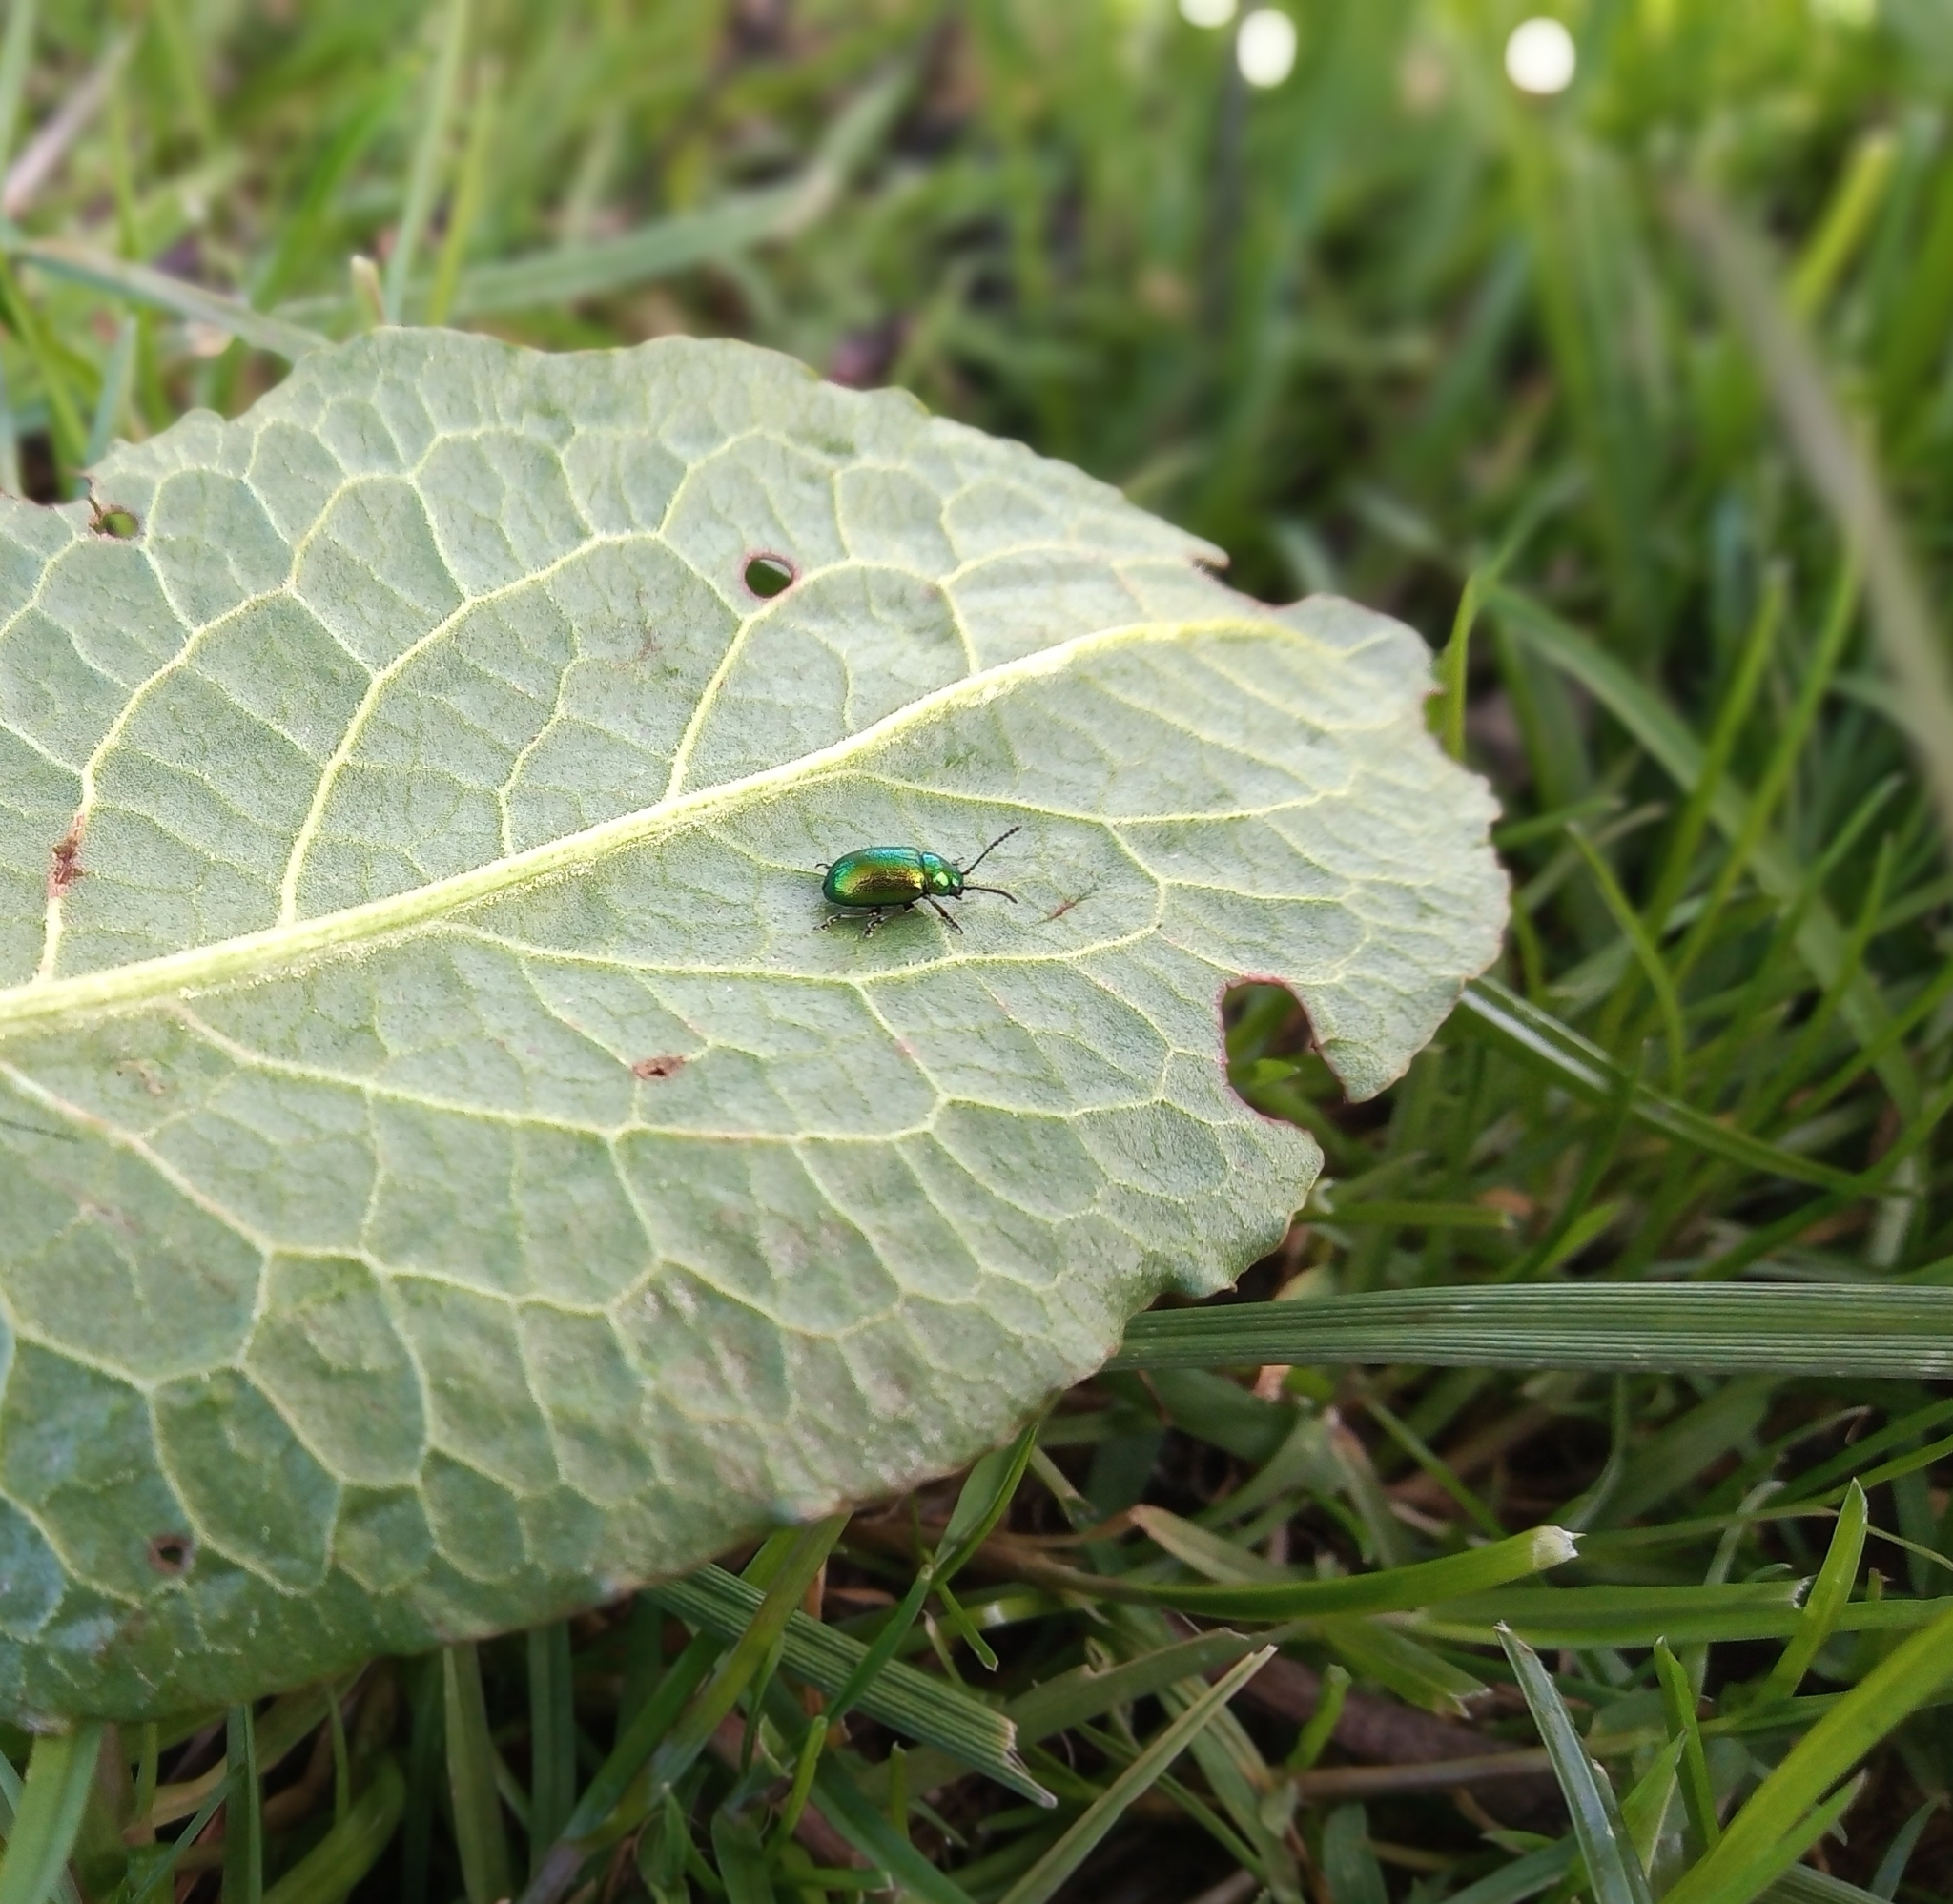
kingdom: Animalia
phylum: Arthropoda
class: Insecta
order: Coleoptera
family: Chrysomelidae
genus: Gastrophysa
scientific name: Gastrophysa viridula
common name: Green dock beetle
